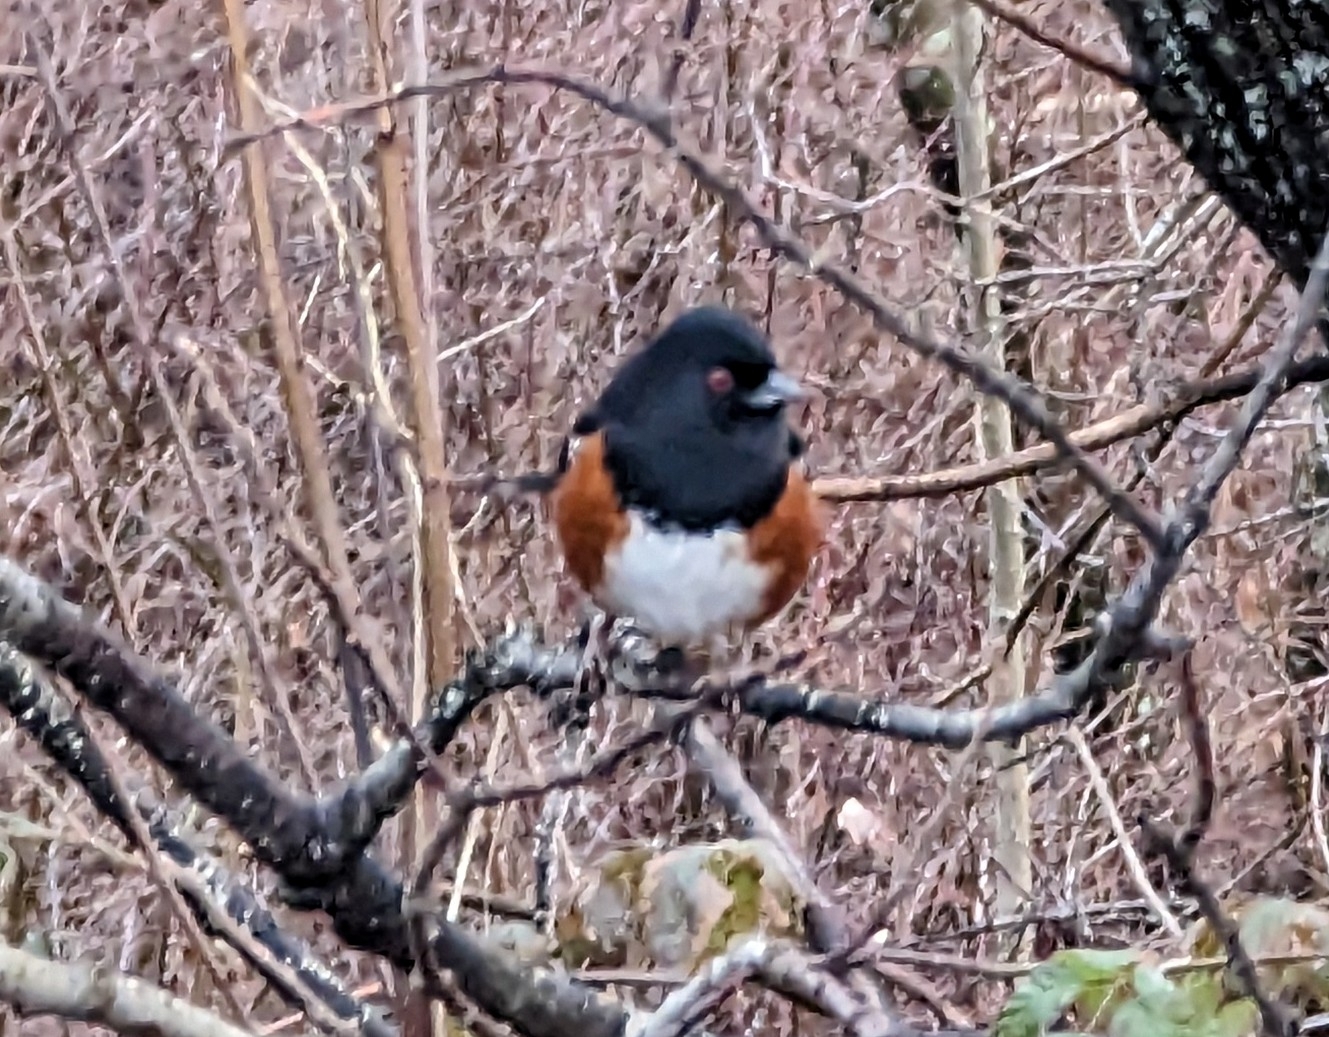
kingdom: Animalia
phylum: Chordata
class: Aves
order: Passeriformes
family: Passerellidae
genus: Pipilo
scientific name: Pipilo maculatus
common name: Spotted towhee
